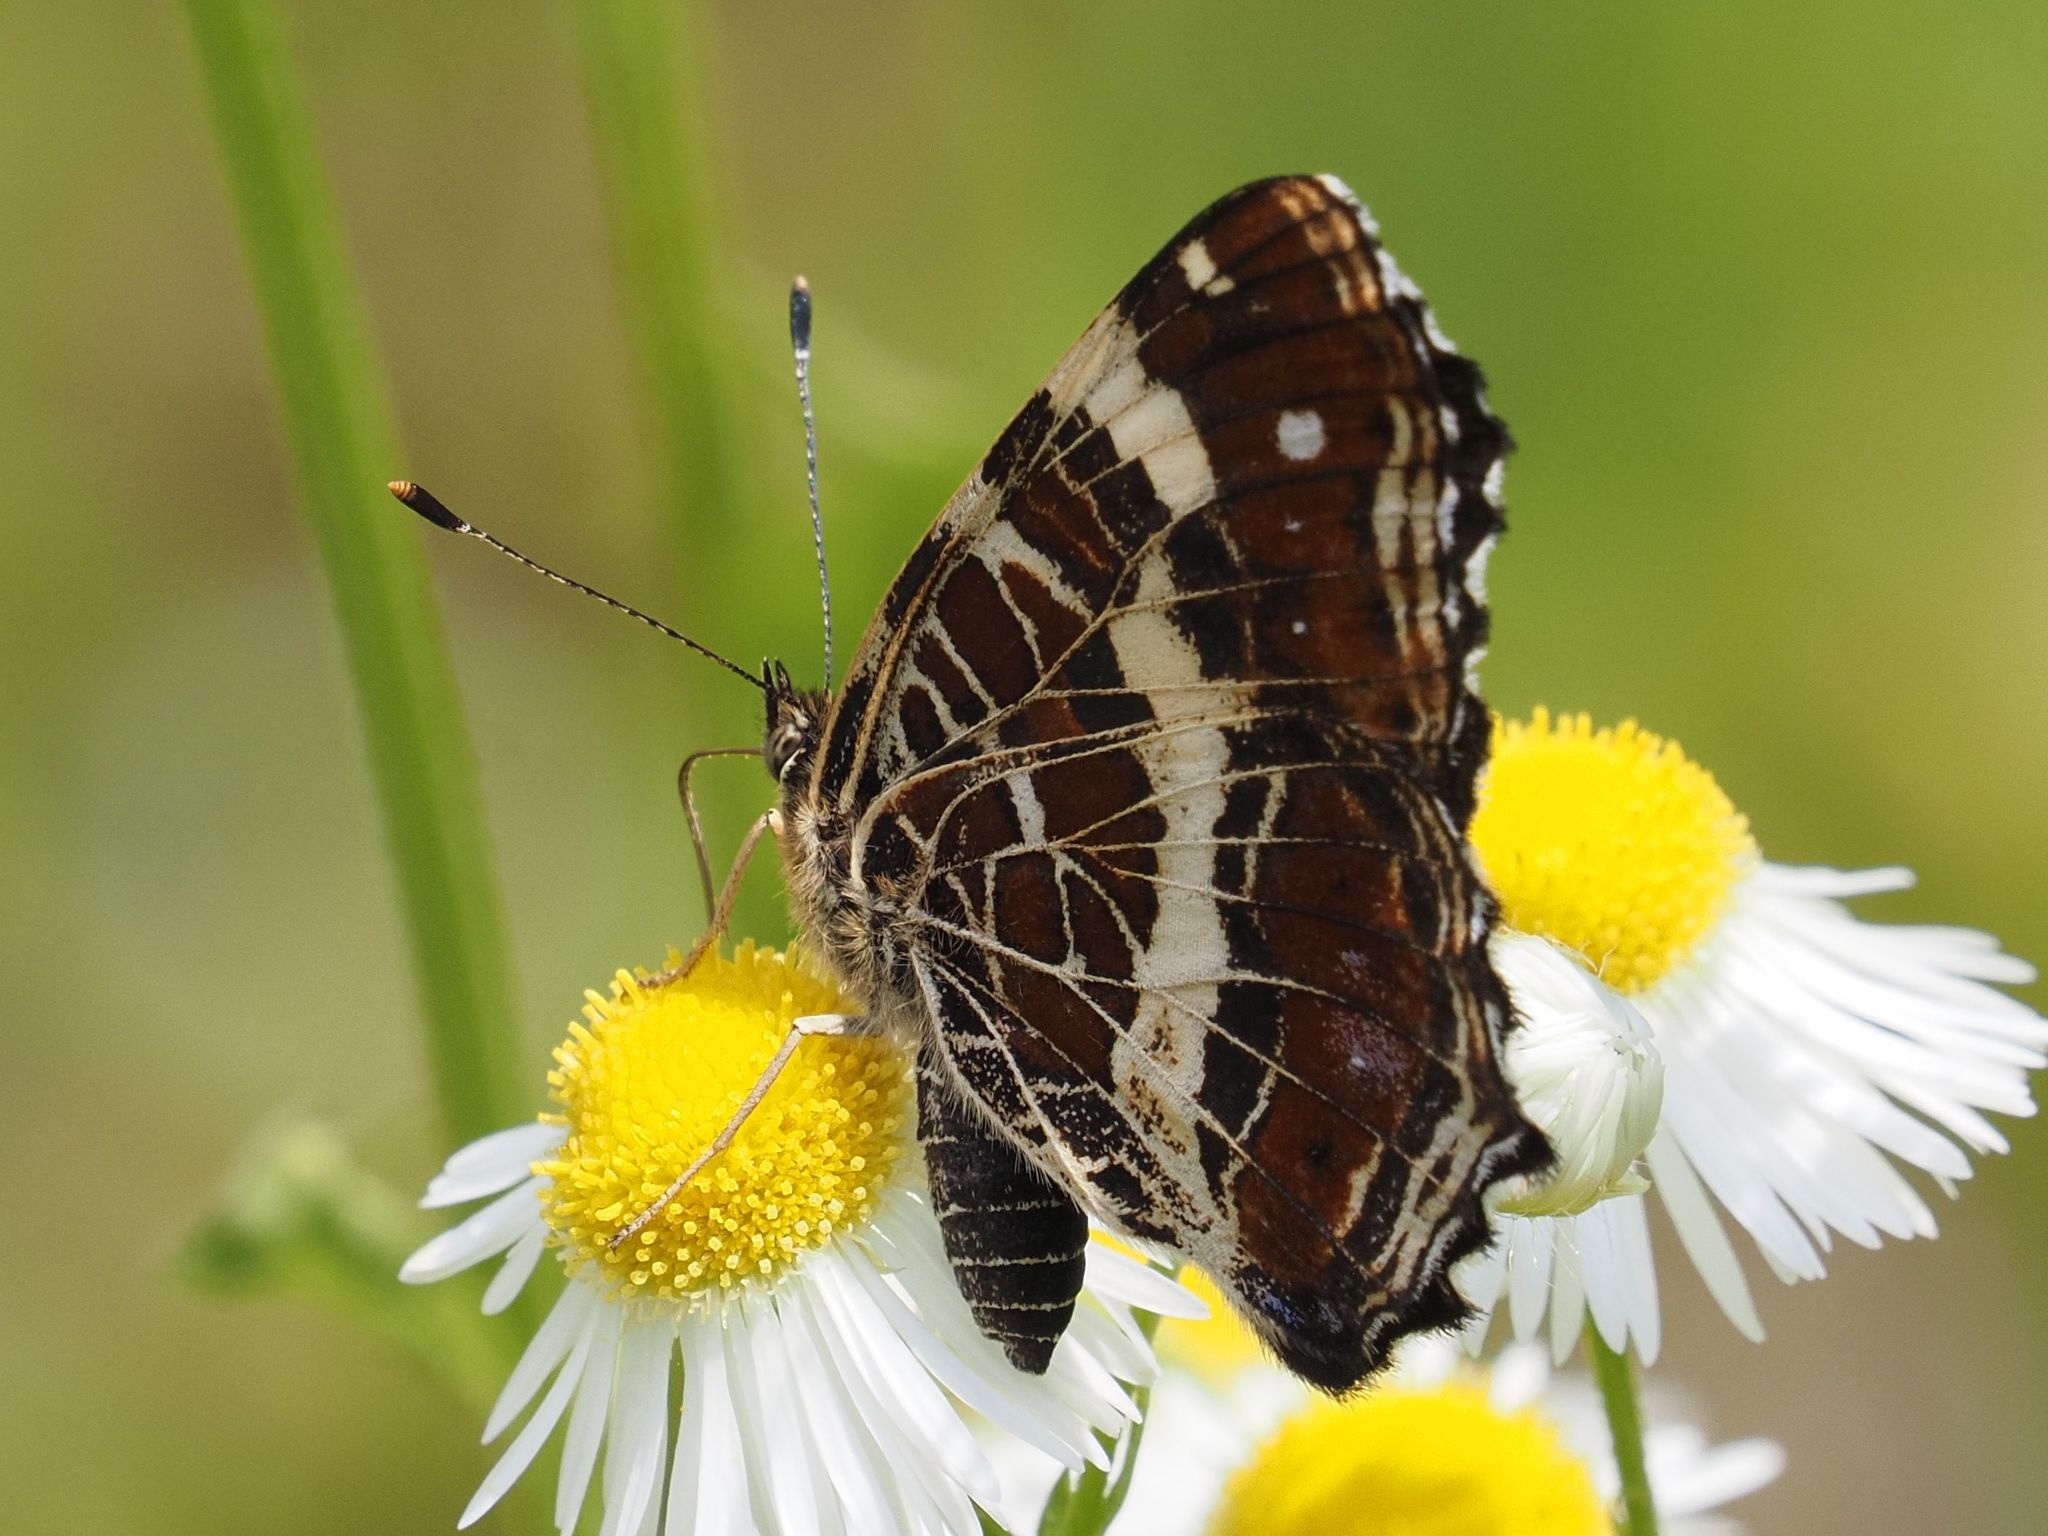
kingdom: Animalia
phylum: Arthropoda
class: Insecta
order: Lepidoptera
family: Nymphalidae
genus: Araschnia
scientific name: Araschnia levana
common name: Map butterfly
